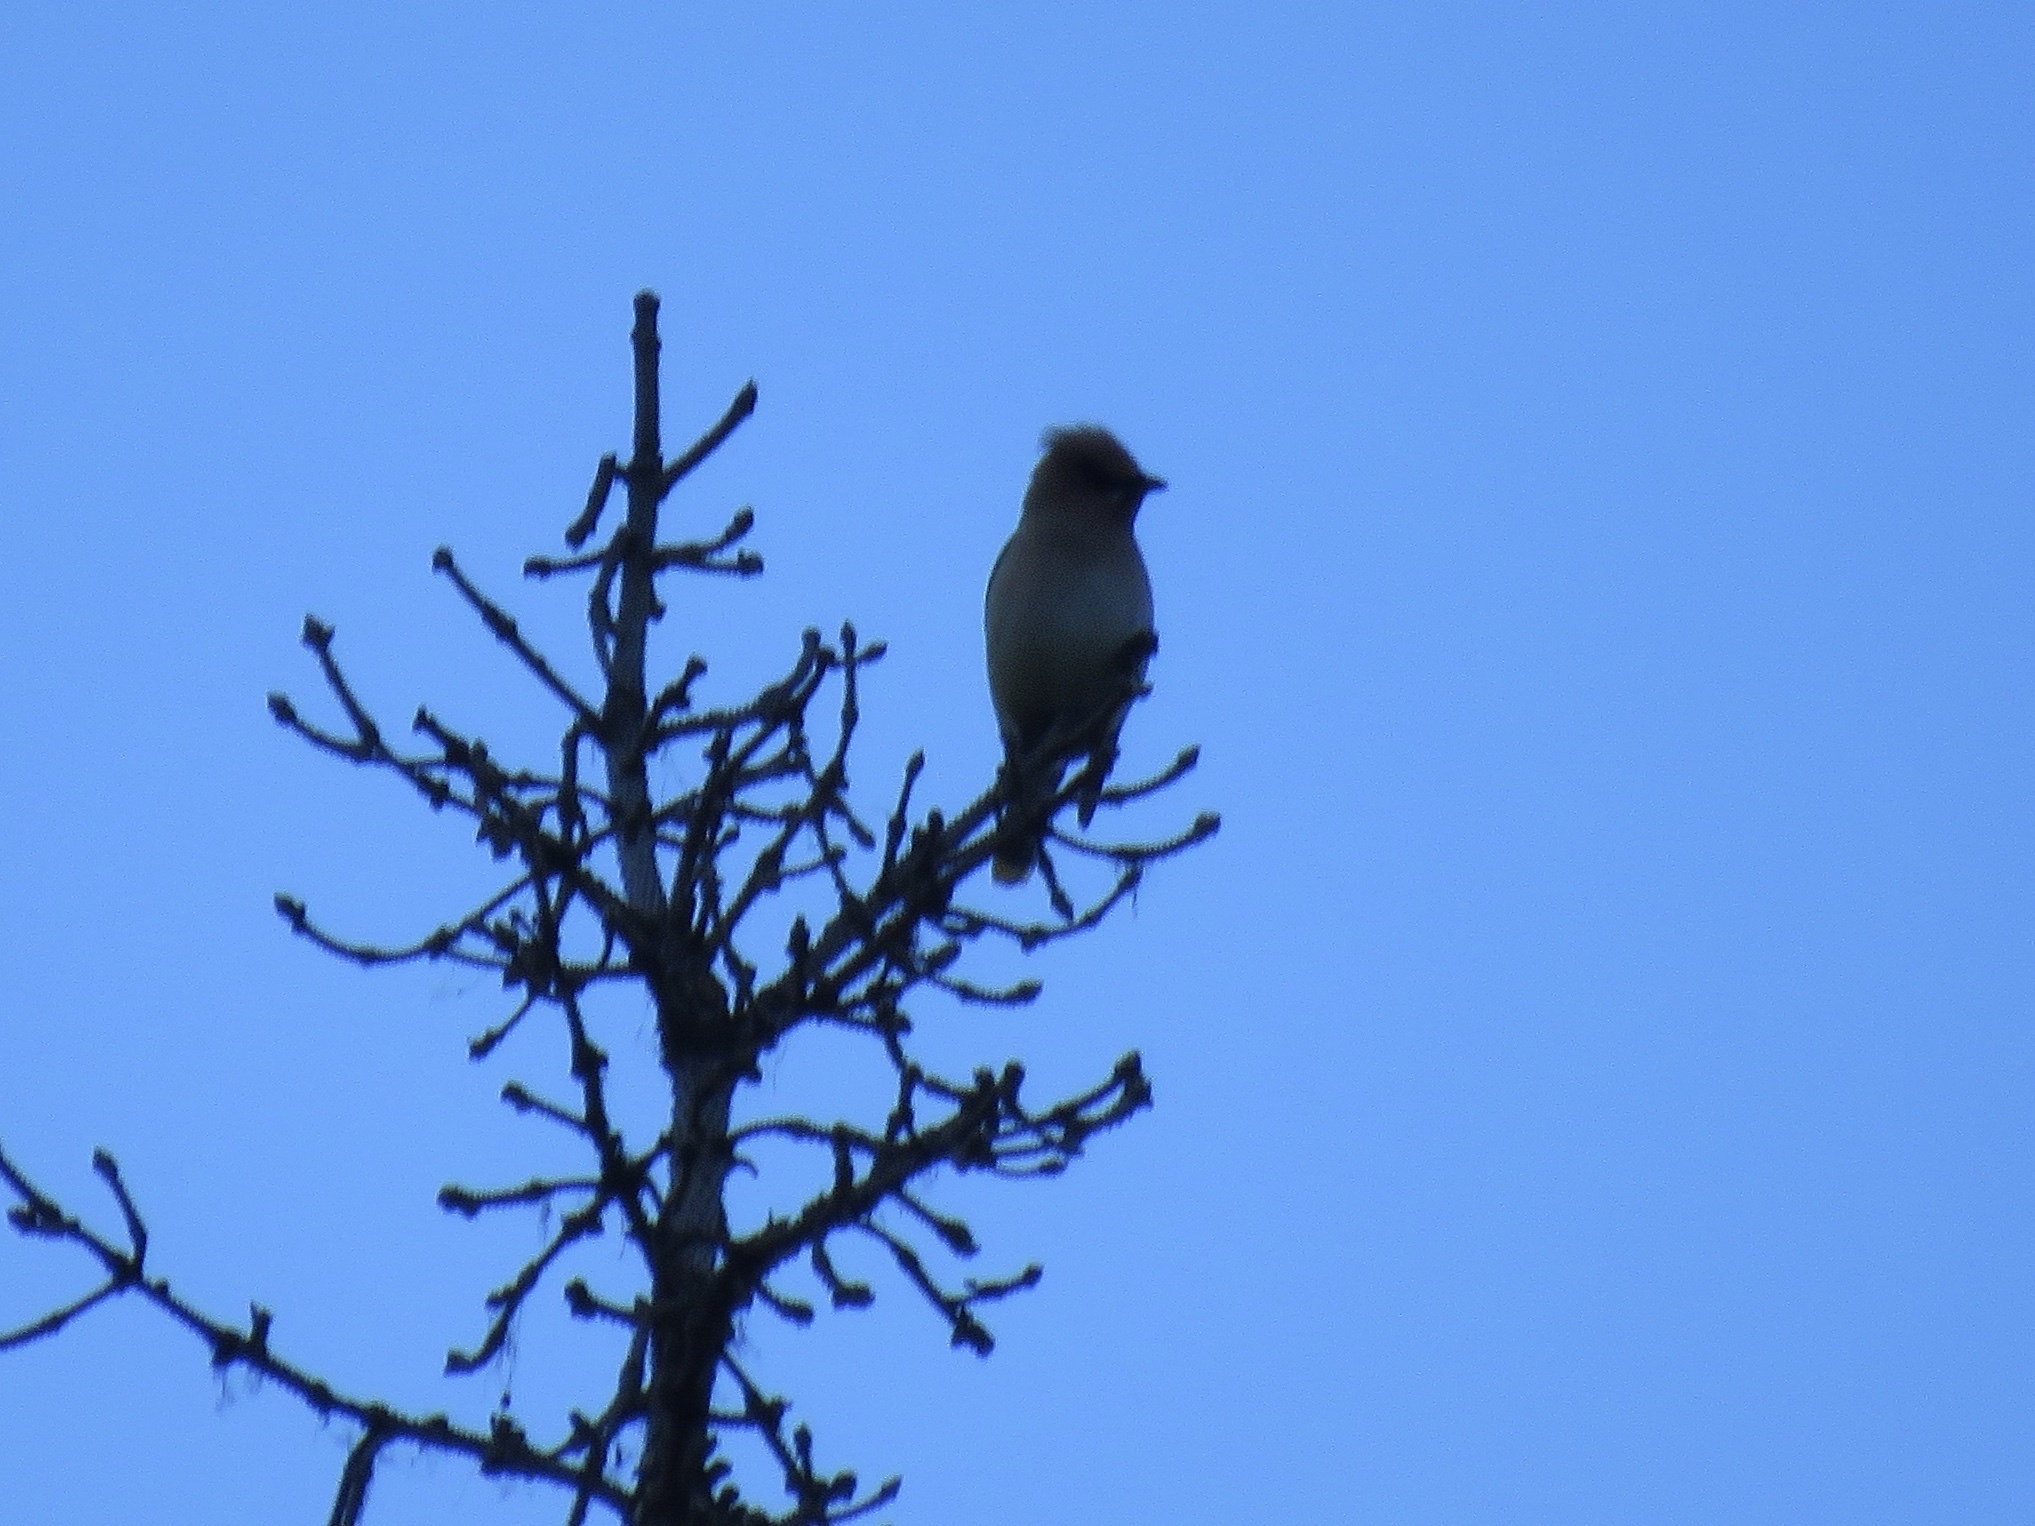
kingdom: Animalia
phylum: Chordata
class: Aves
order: Passeriformes
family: Bombycillidae
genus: Bombycilla
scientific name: Bombycilla cedrorum
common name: Cedar waxwing
